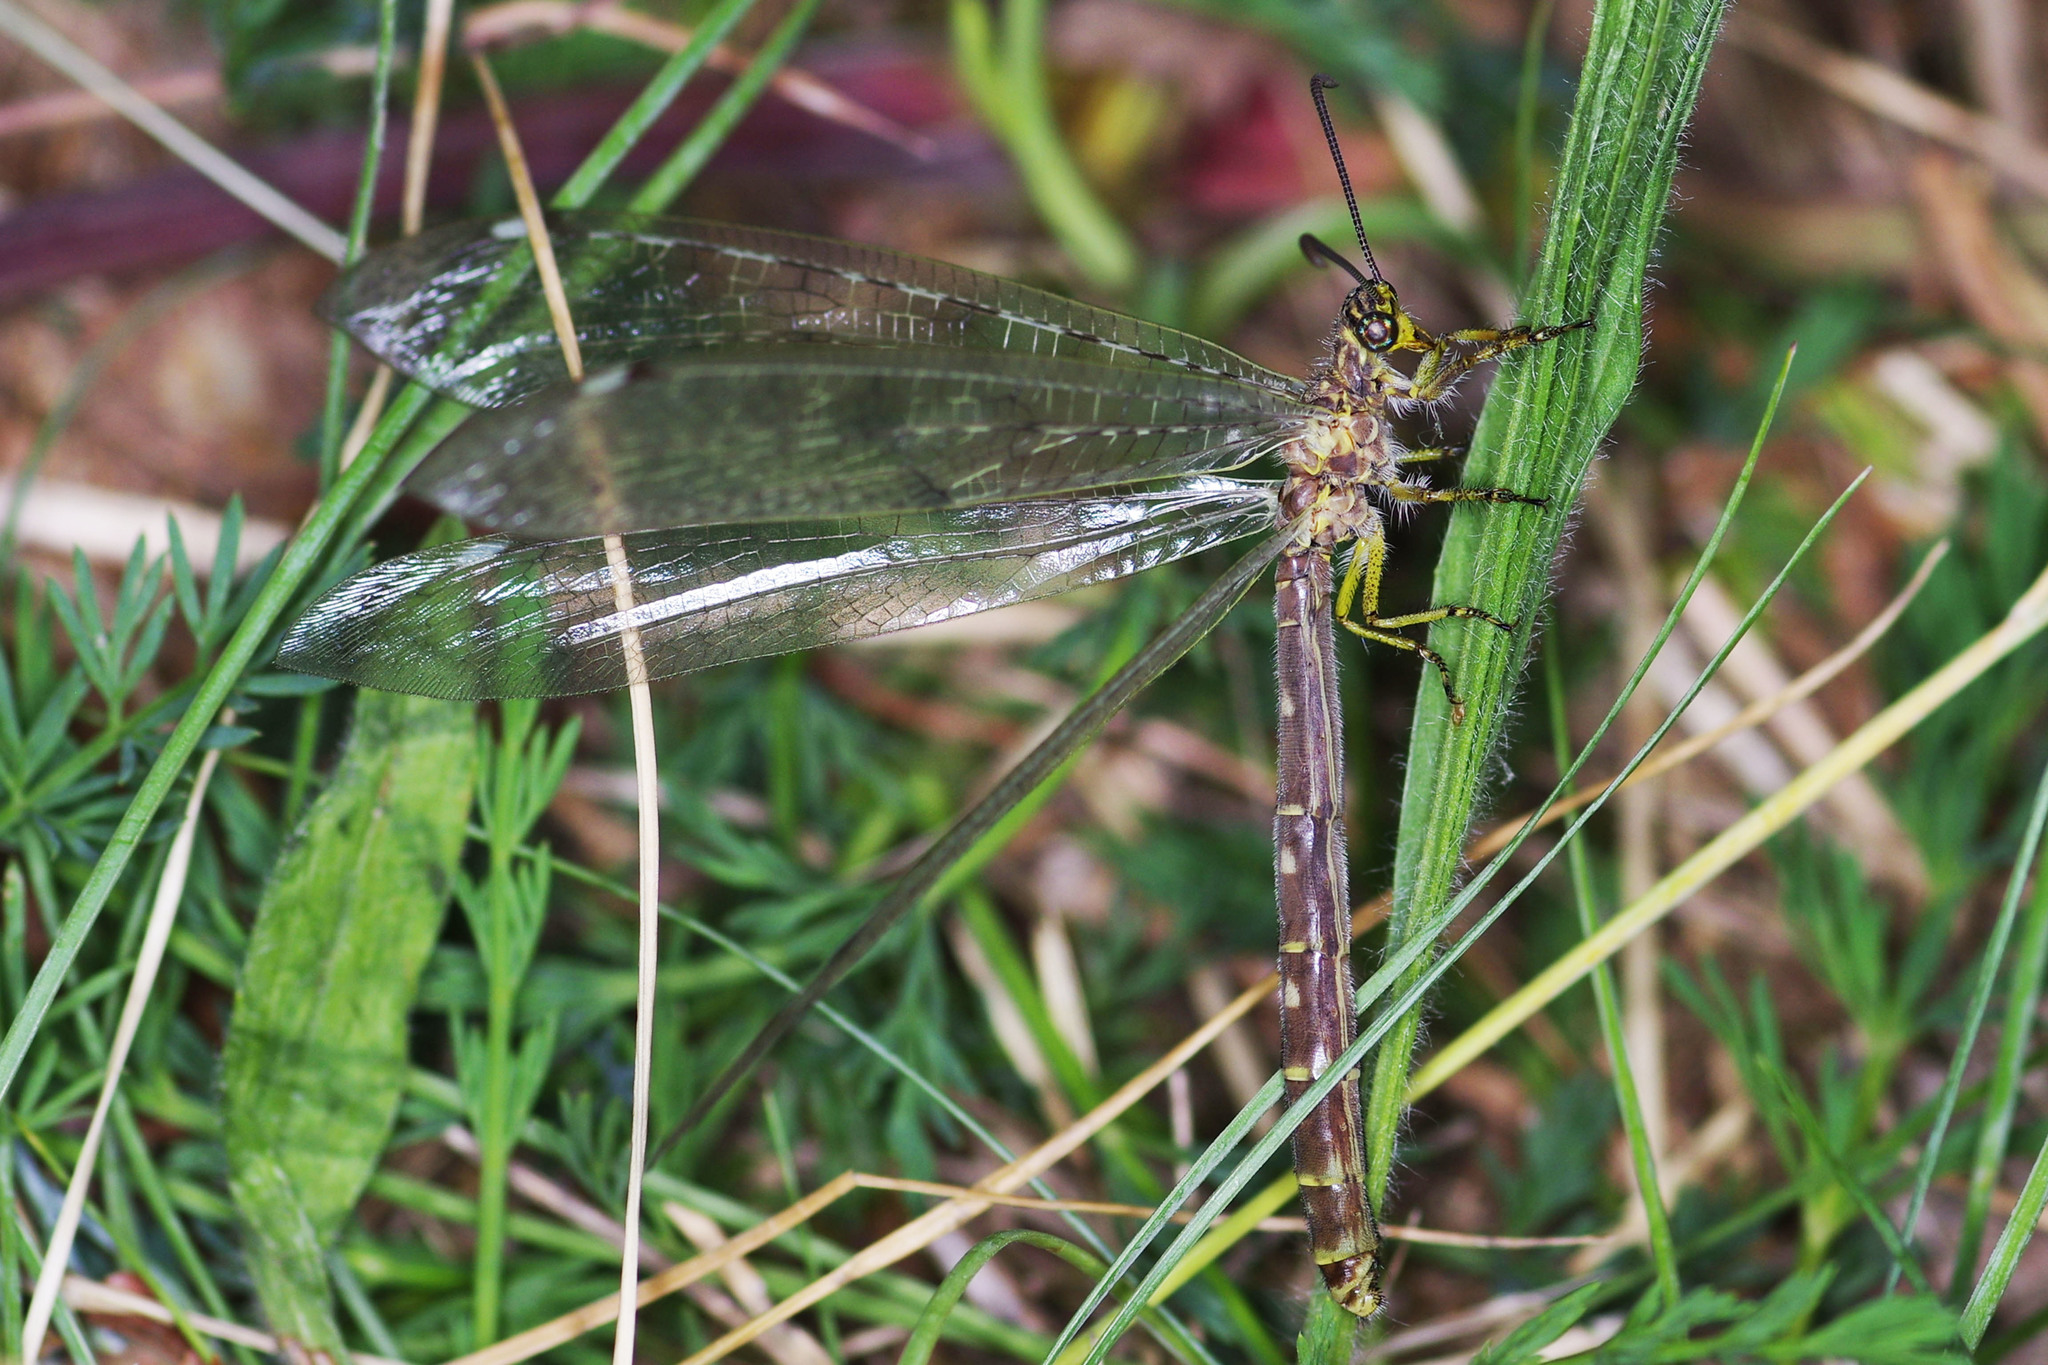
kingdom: Animalia
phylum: Arthropoda
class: Insecta
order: Neuroptera
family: Myrmeleontidae
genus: Distoleon
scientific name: Distoleon tetragrammicus
